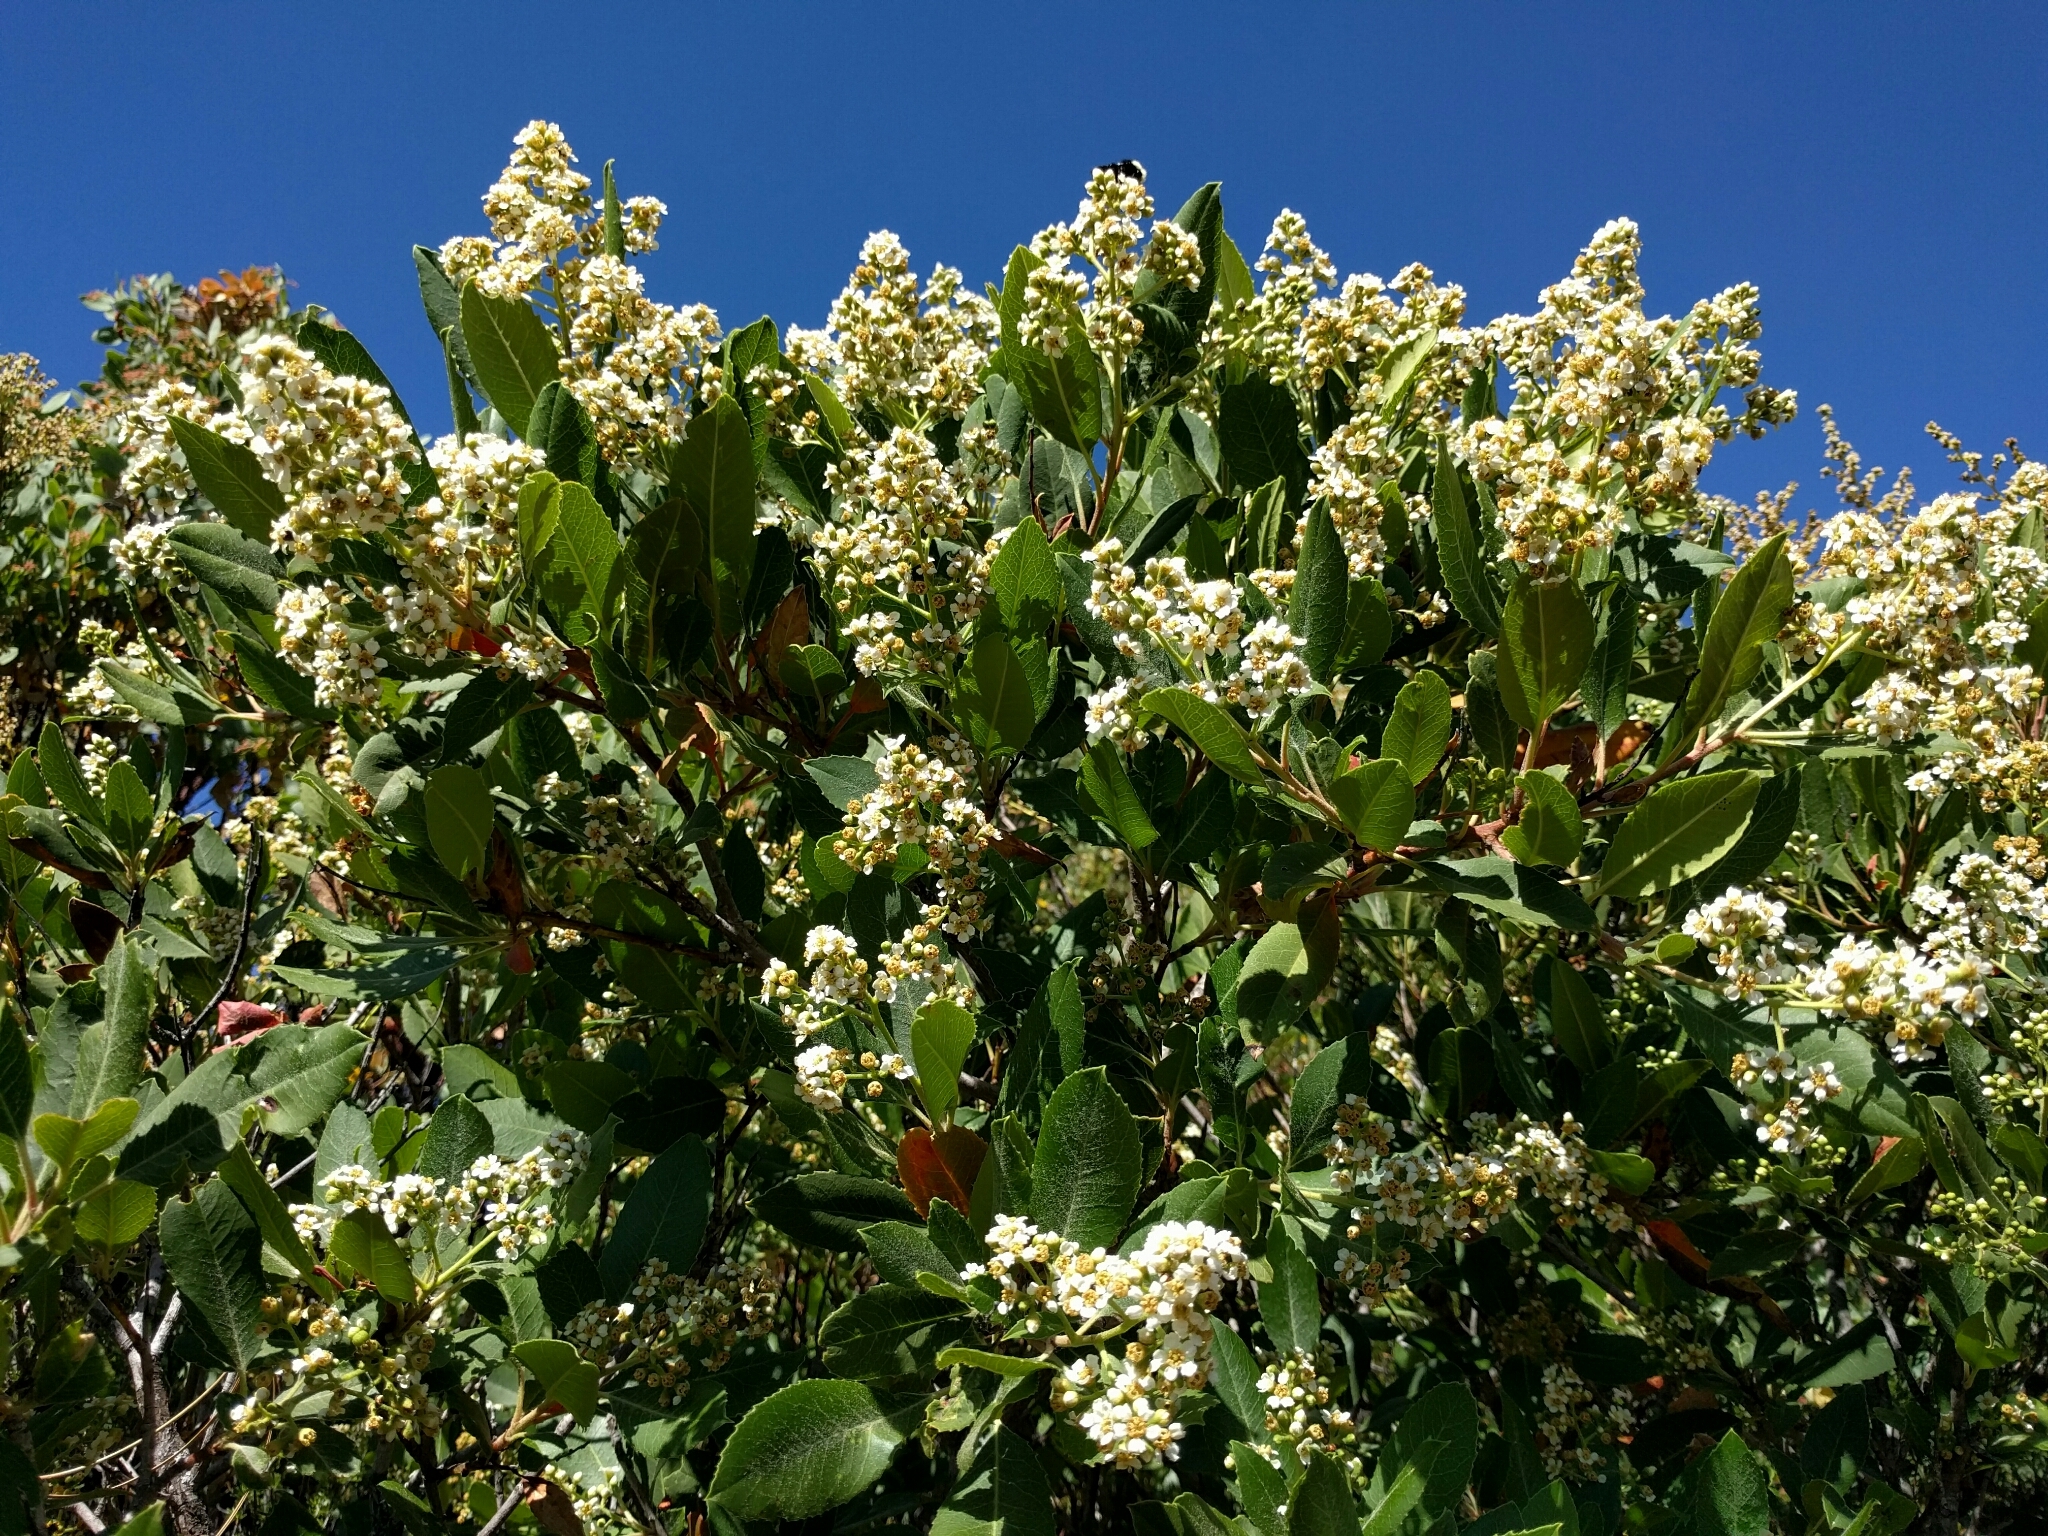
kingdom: Plantae
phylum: Tracheophyta
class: Magnoliopsida
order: Rosales
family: Rosaceae
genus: Heteromeles
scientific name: Heteromeles arbutifolia
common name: California-holly
